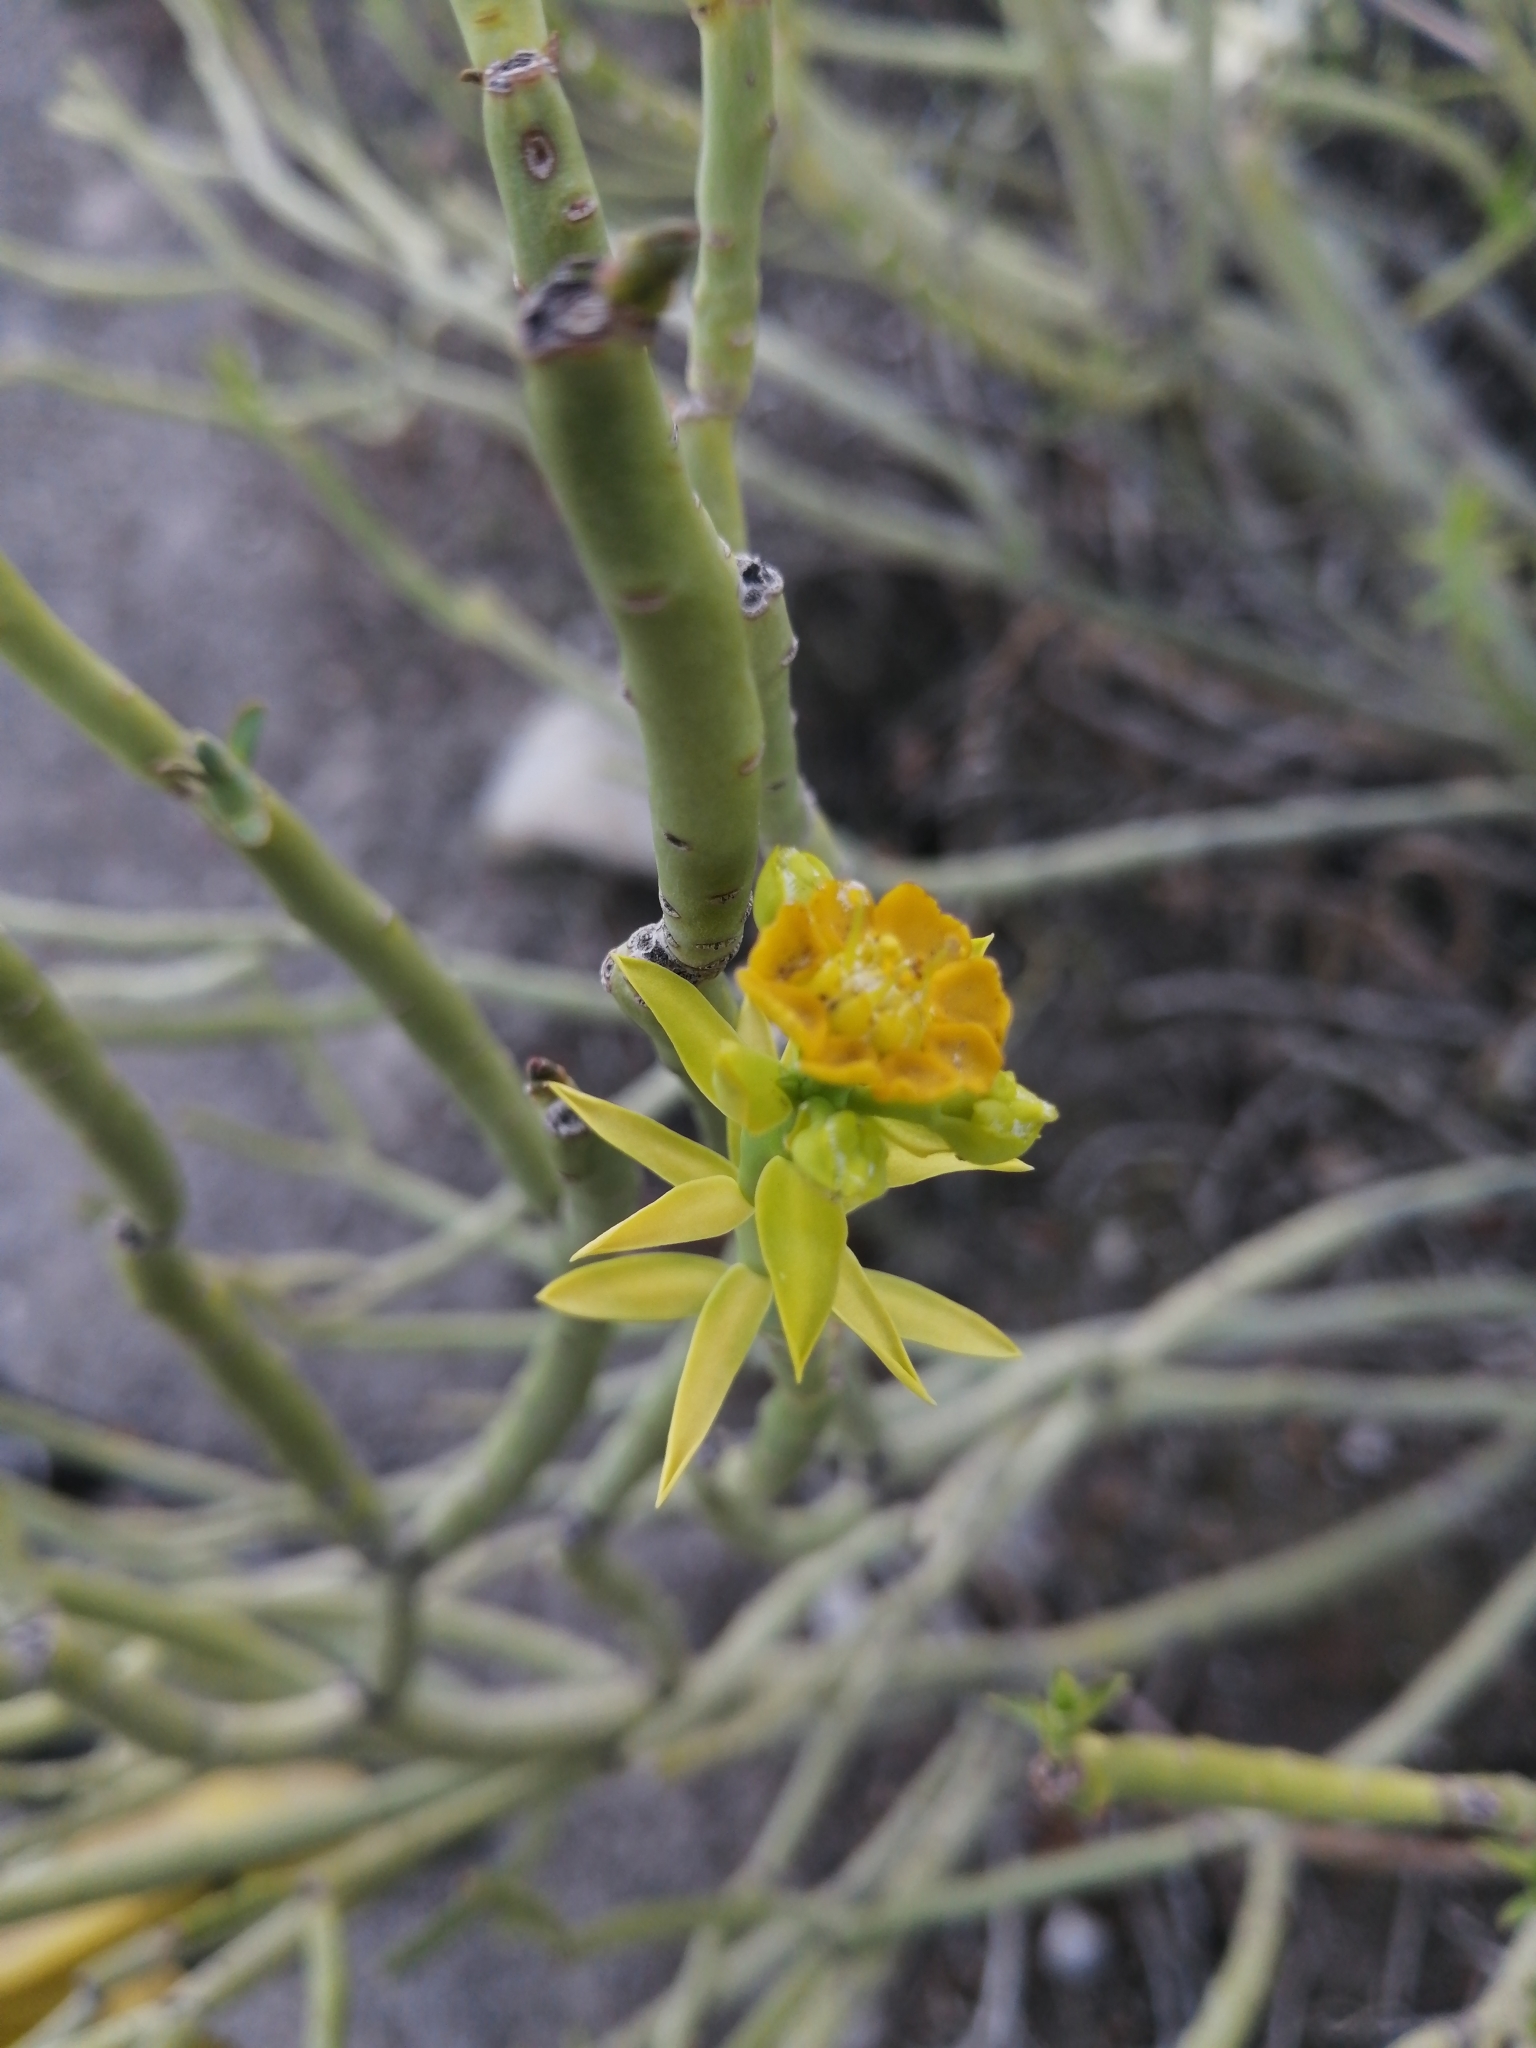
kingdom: Plantae
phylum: Tracheophyta
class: Magnoliopsida
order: Malpighiales
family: Euphorbiaceae
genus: Euphorbia
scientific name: Euphorbia mauritanica
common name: Jackal's-food
